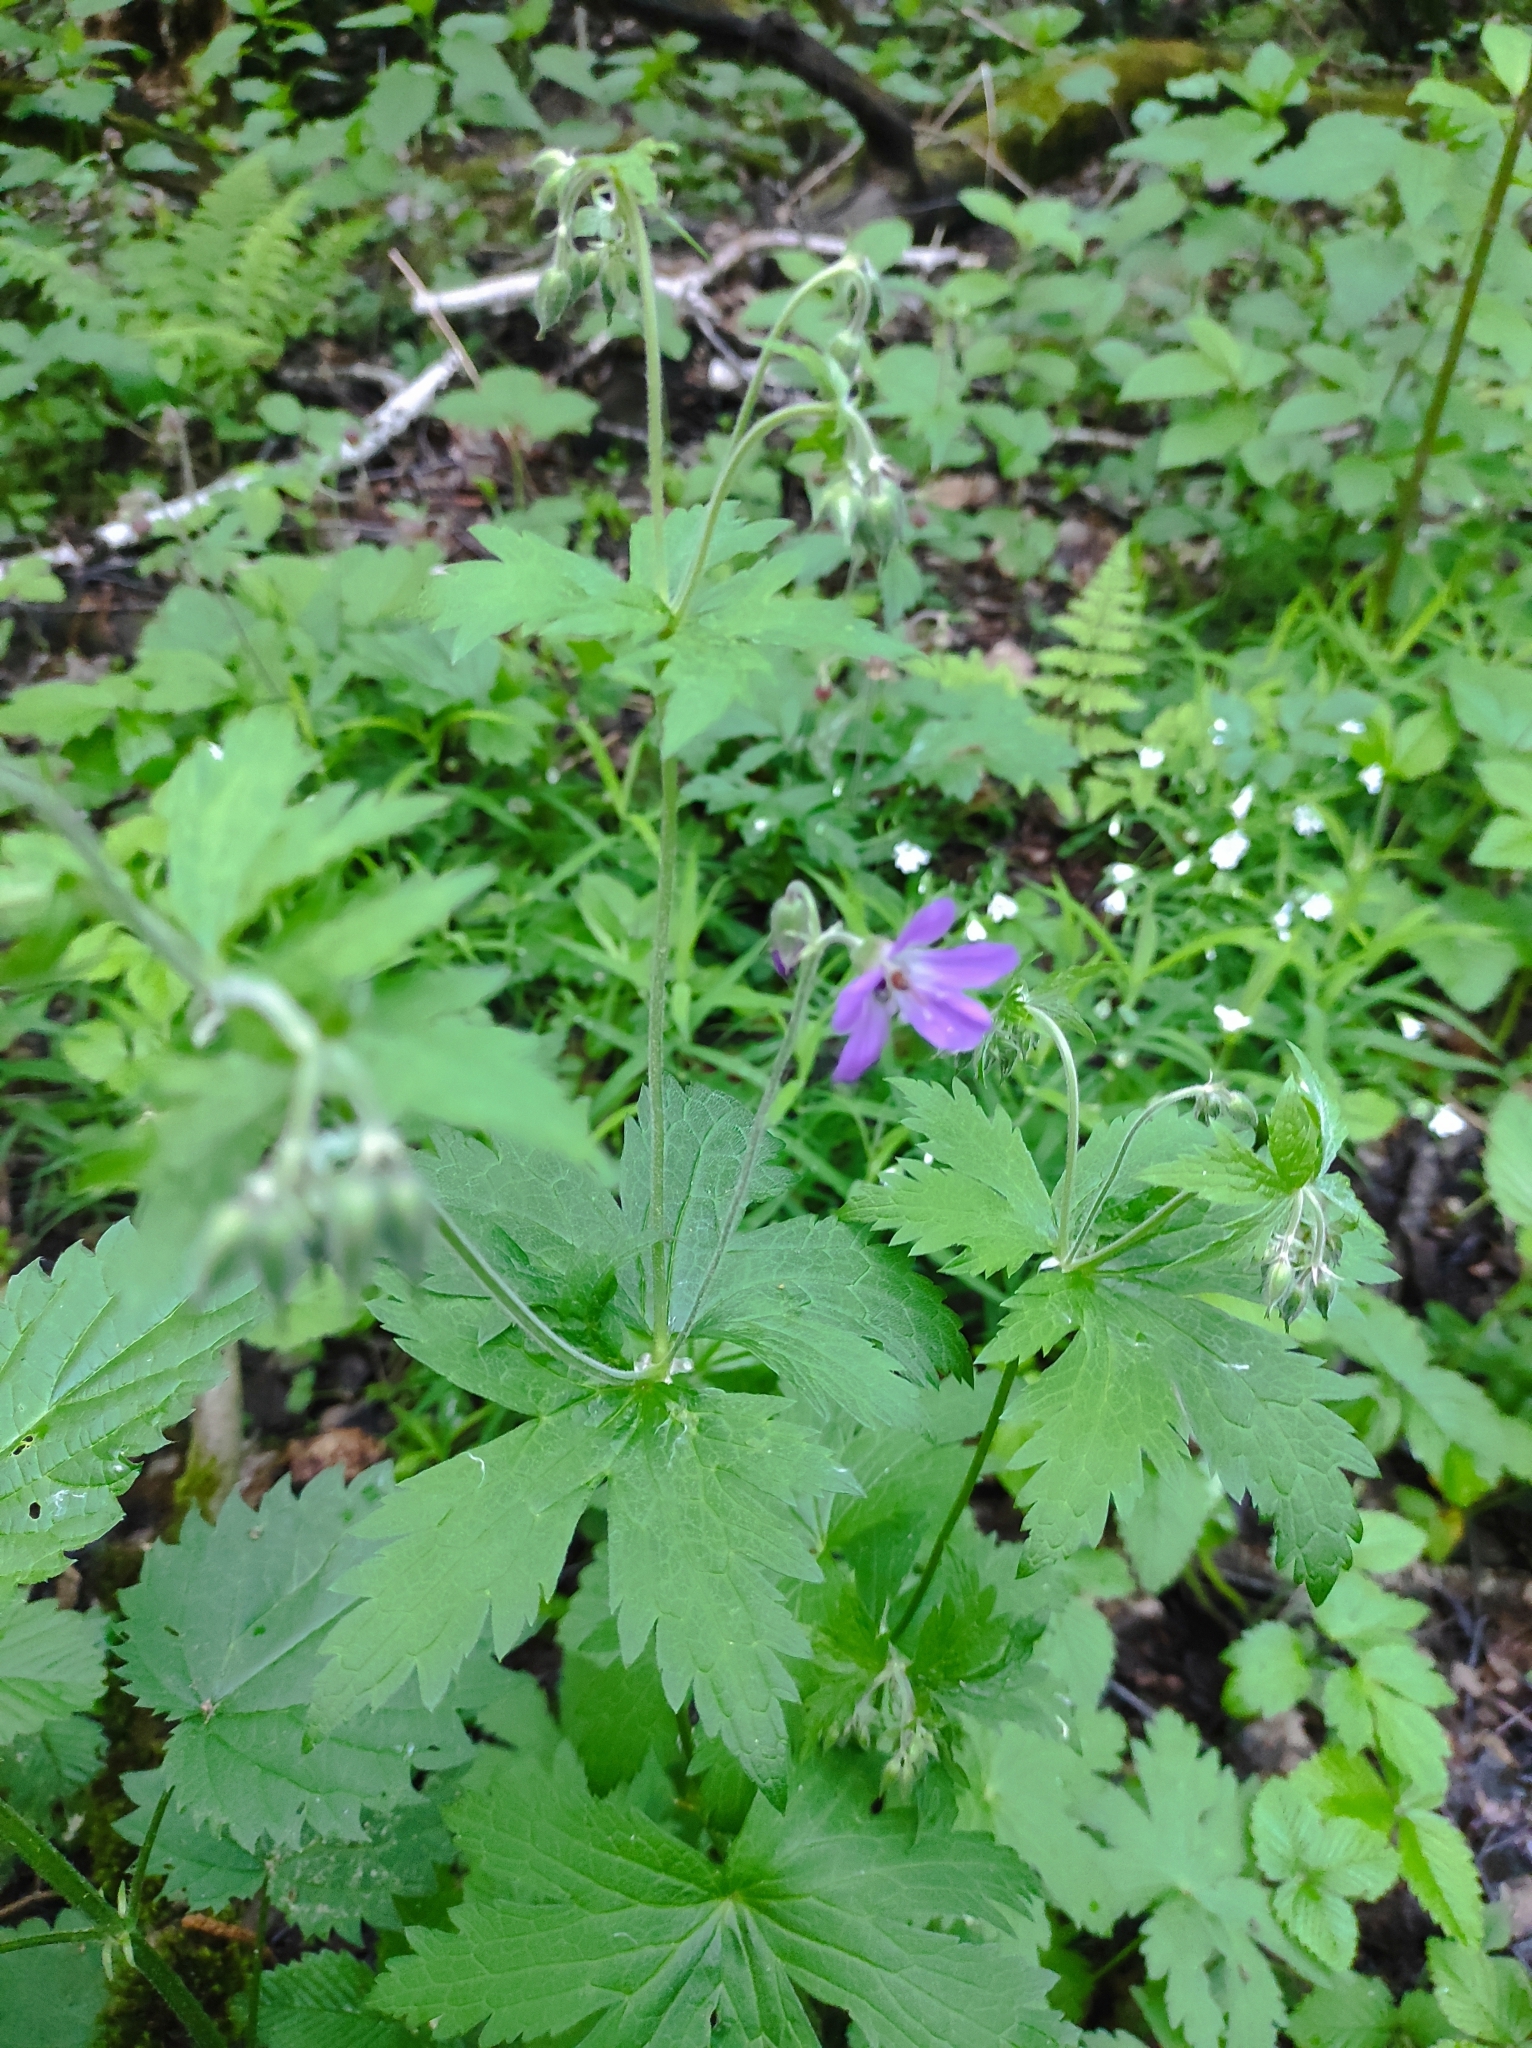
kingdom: Plantae
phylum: Tracheophyta
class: Magnoliopsida
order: Geraniales
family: Geraniaceae
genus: Geranium
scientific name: Geranium sylvaticum
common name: Wood crane's-bill
